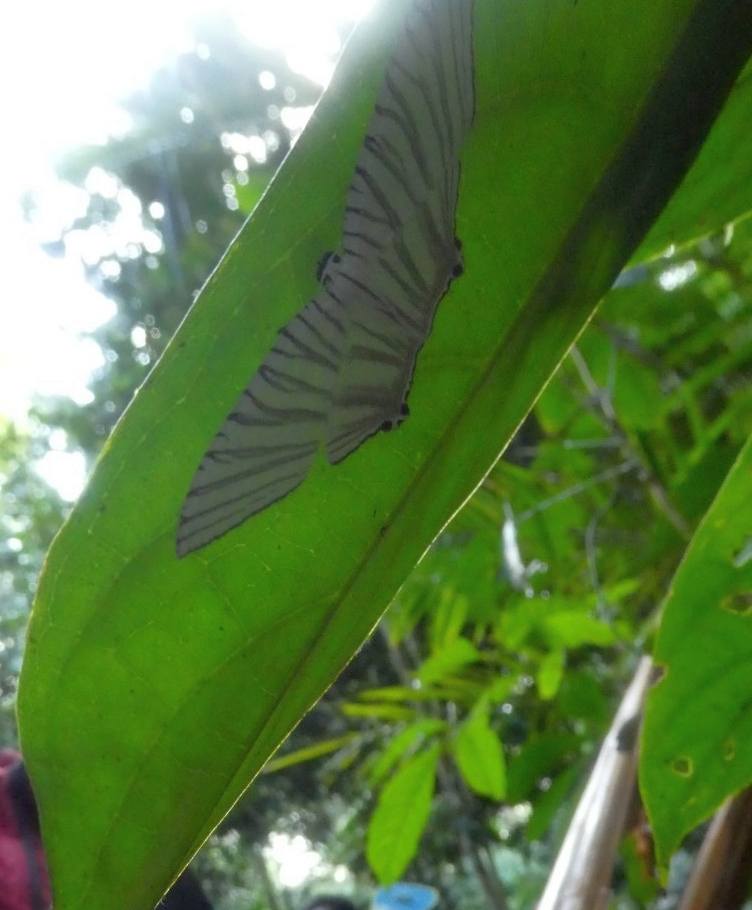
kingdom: Animalia
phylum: Arthropoda
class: Insecta
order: Lepidoptera
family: Uraniidae
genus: Strophidia
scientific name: Strophidia directaria
